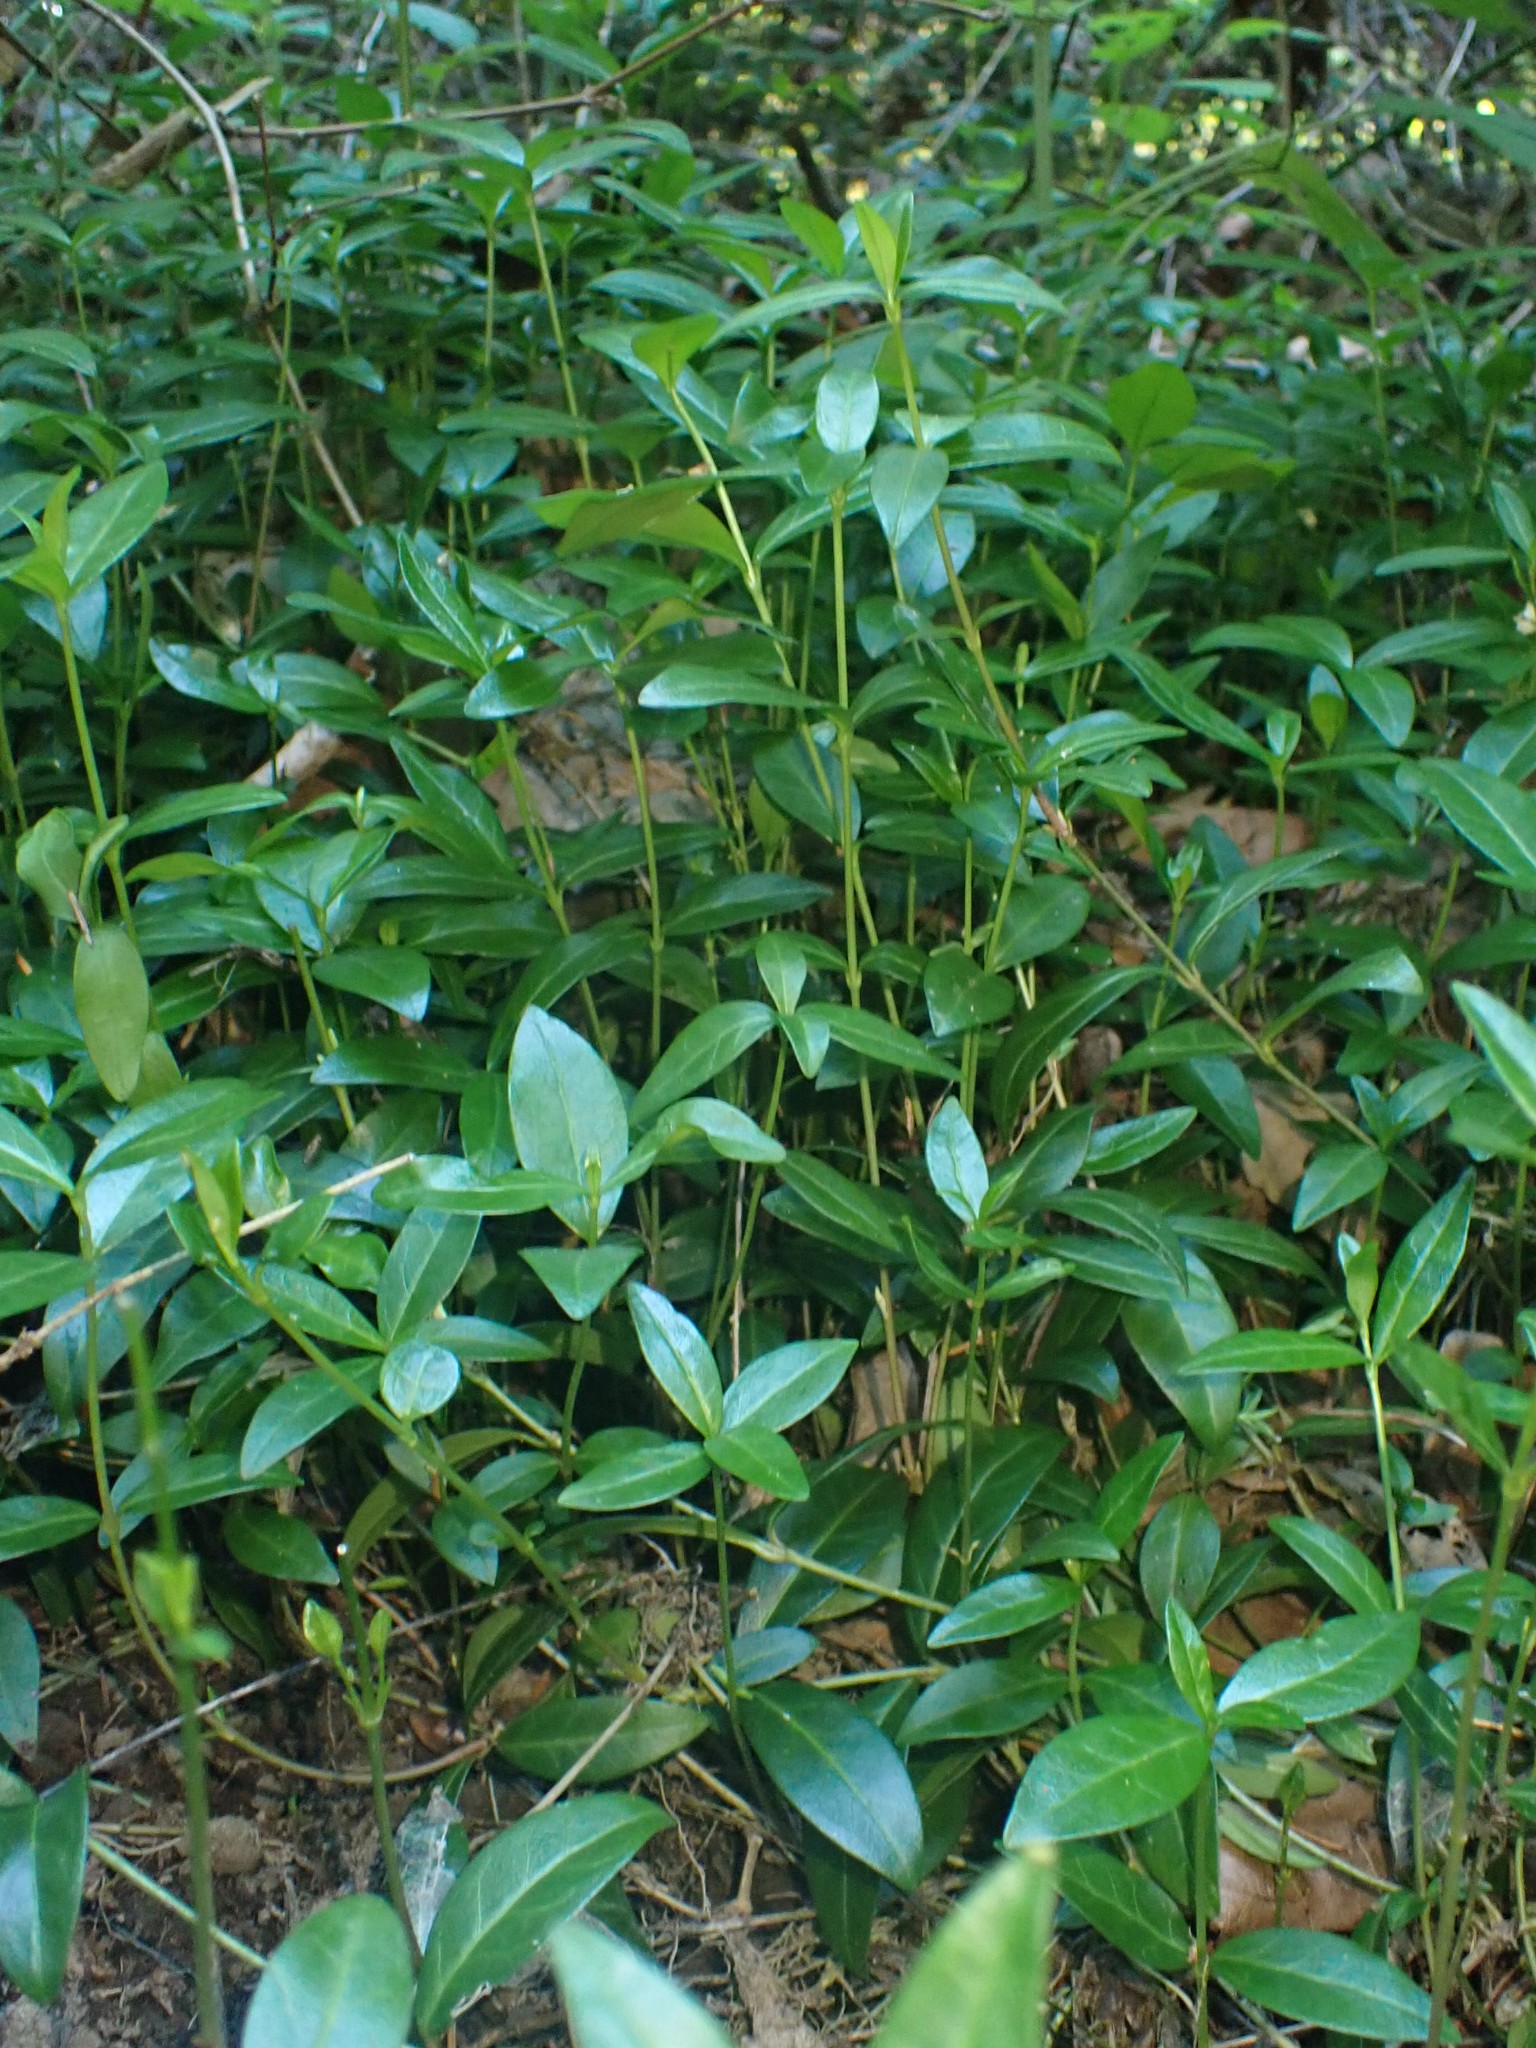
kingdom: Plantae
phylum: Tracheophyta
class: Magnoliopsida
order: Gentianales
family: Apocynaceae
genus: Vinca
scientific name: Vinca minor
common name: Lesser periwinkle
